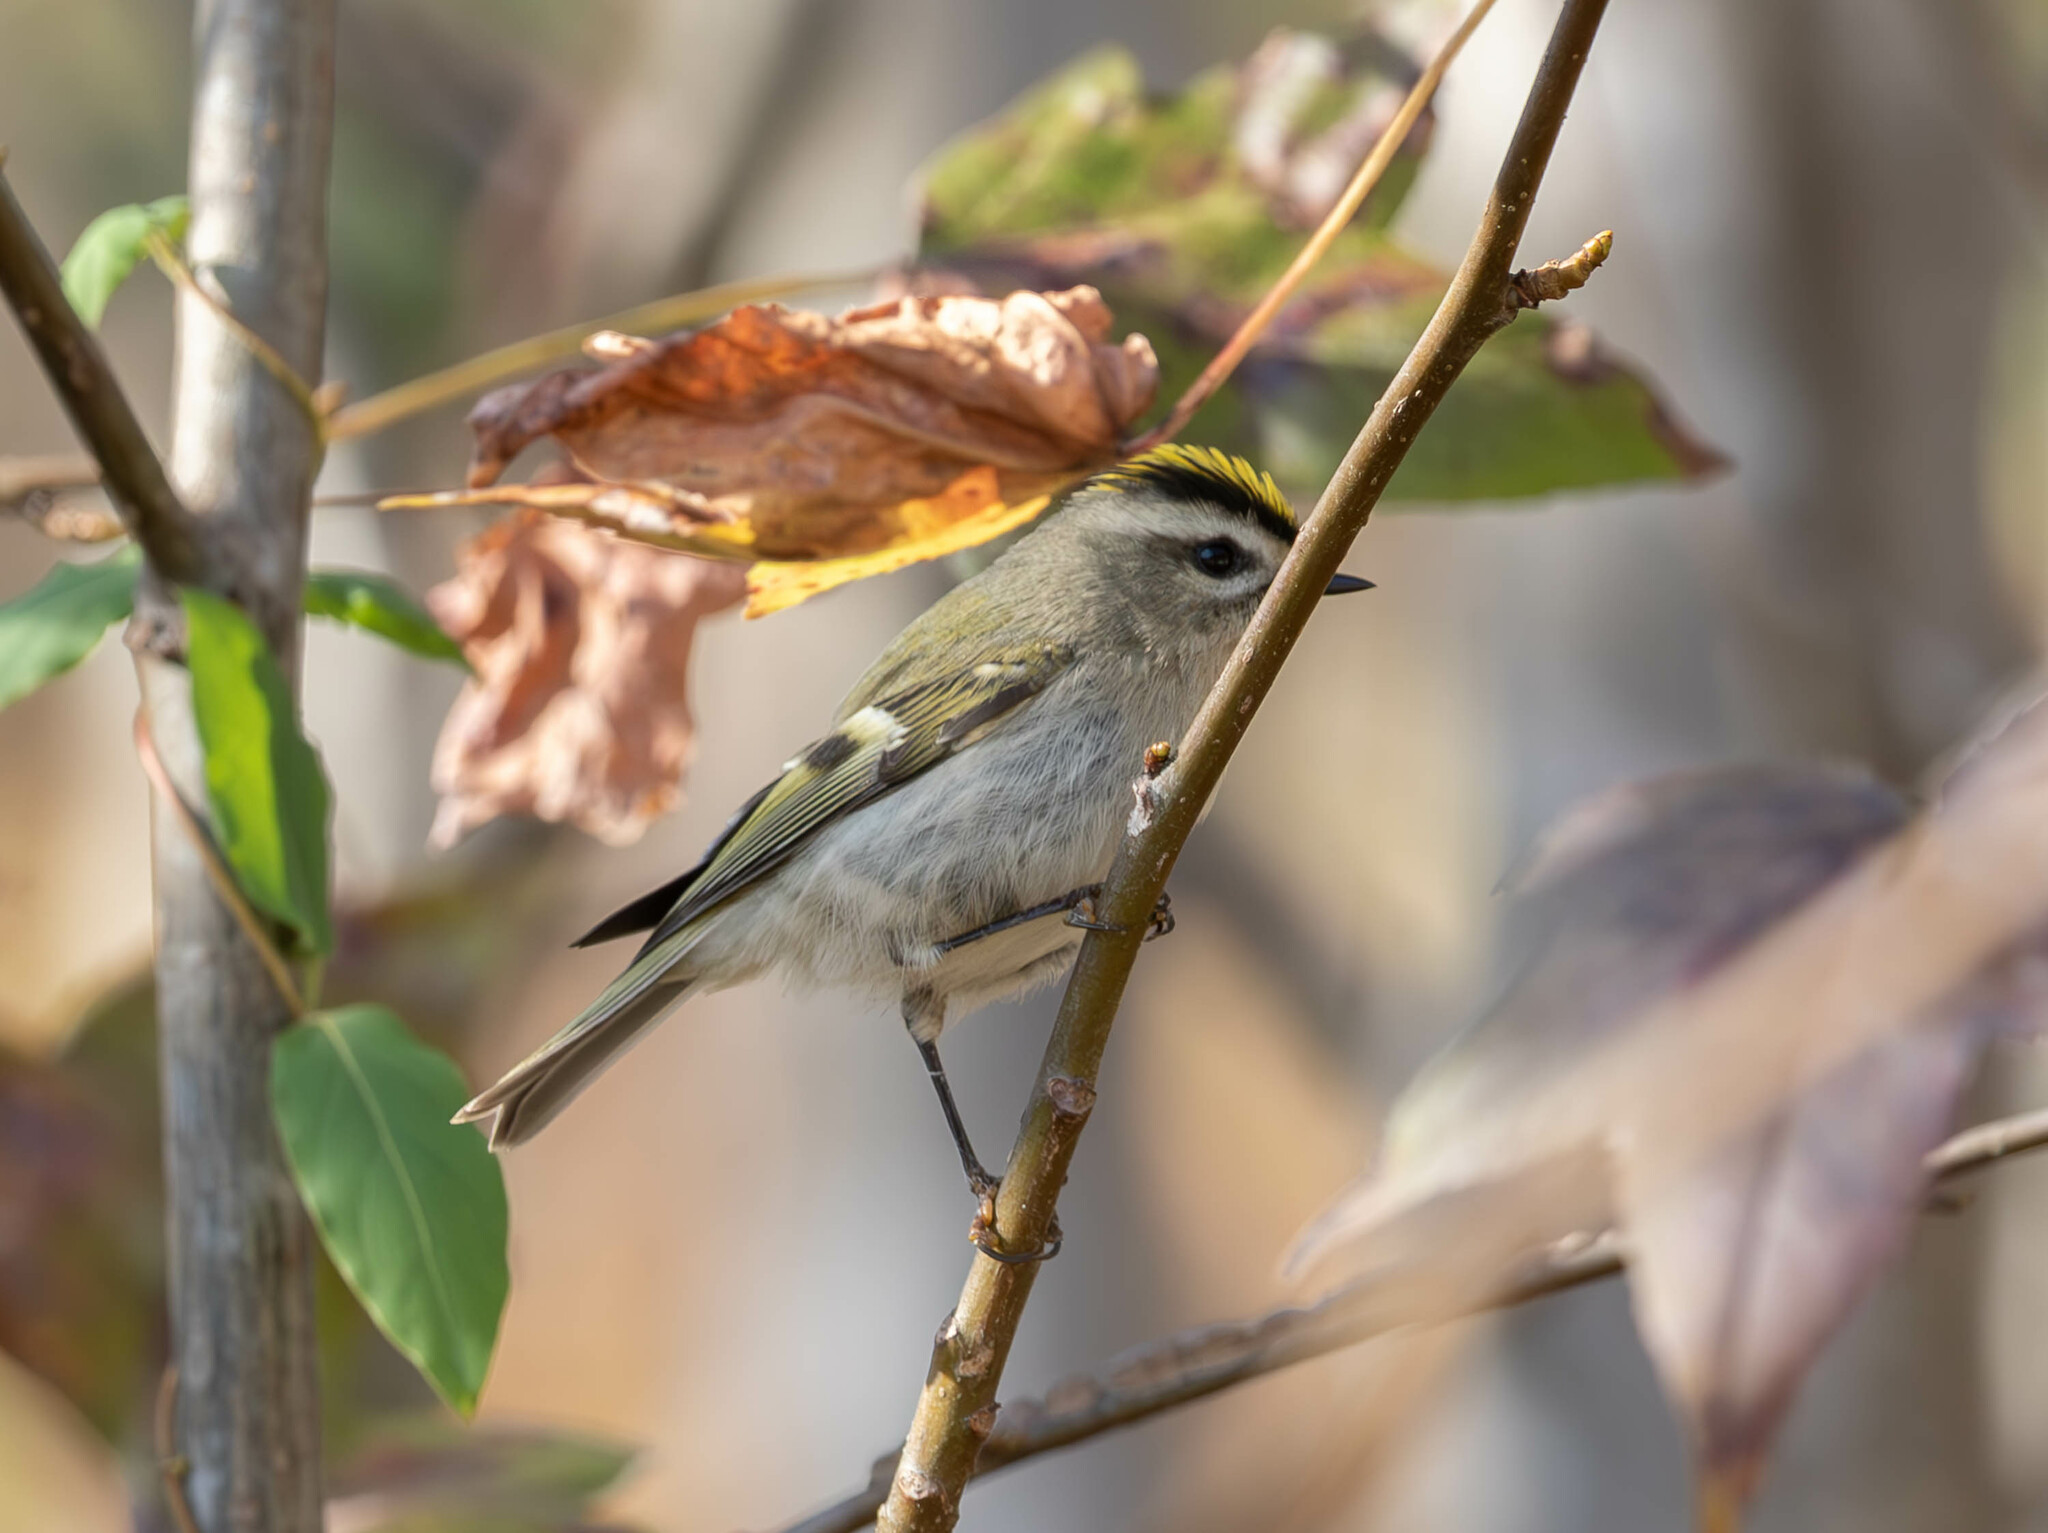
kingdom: Animalia
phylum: Chordata
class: Aves
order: Passeriformes
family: Regulidae
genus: Regulus
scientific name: Regulus satrapa
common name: Golden-crowned kinglet
